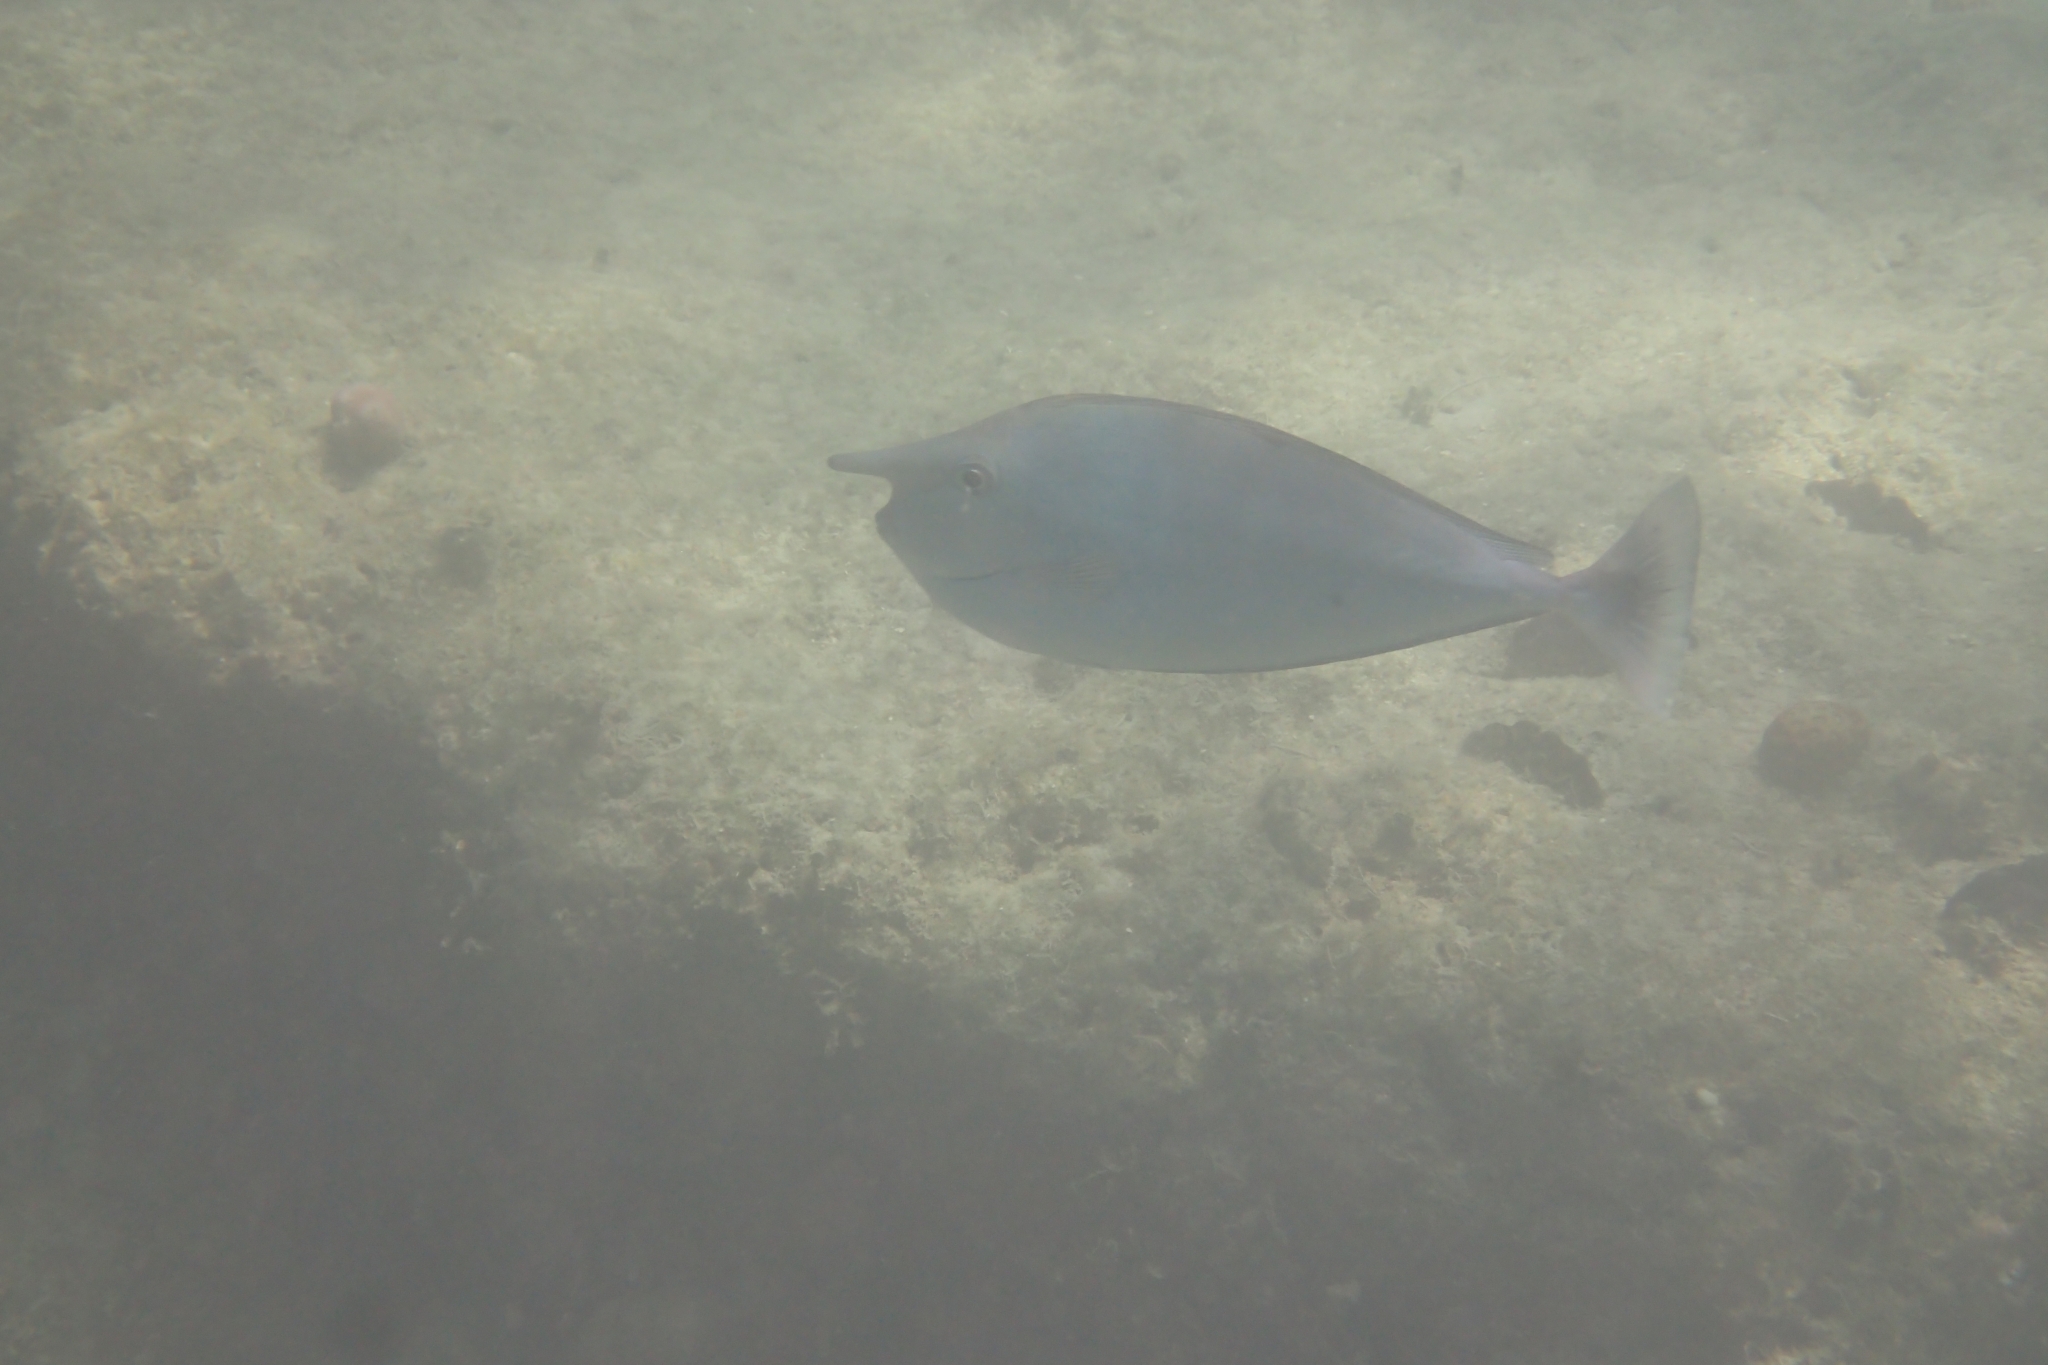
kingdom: Animalia
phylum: Chordata
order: Perciformes
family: Acanthuridae
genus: Naso
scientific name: Naso brevirostris
